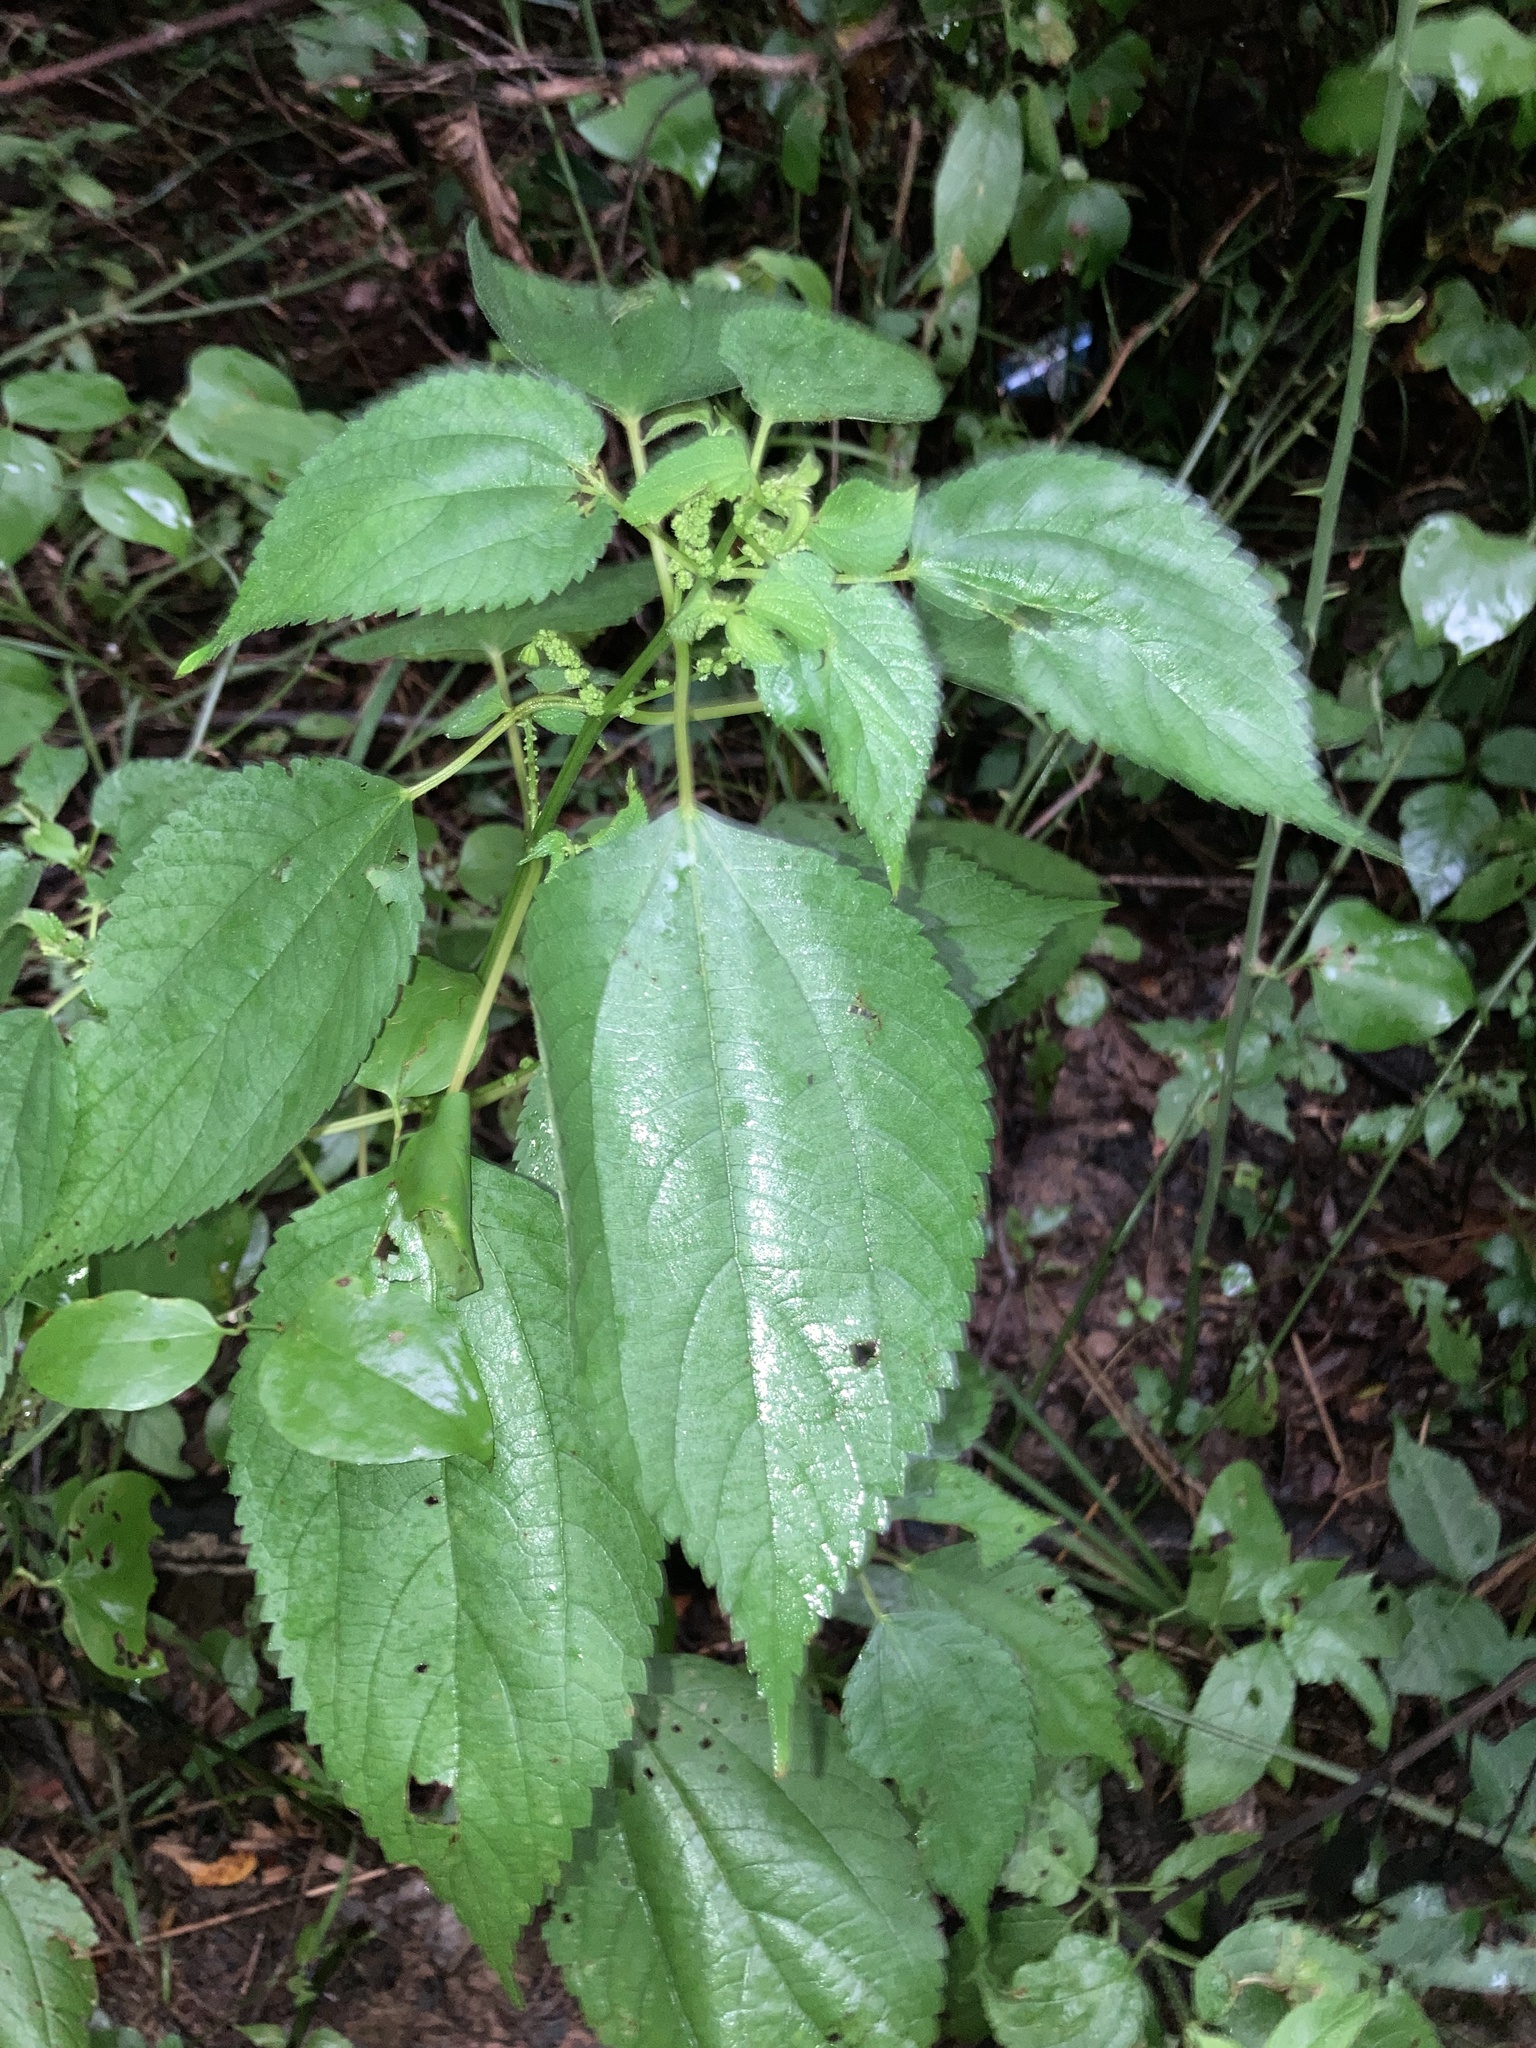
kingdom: Plantae
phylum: Tracheophyta
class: Magnoliopsida
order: Rosales
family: Urticaceae
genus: Boehmeria
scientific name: Boehmeria cylindrica
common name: Bog-hemp
